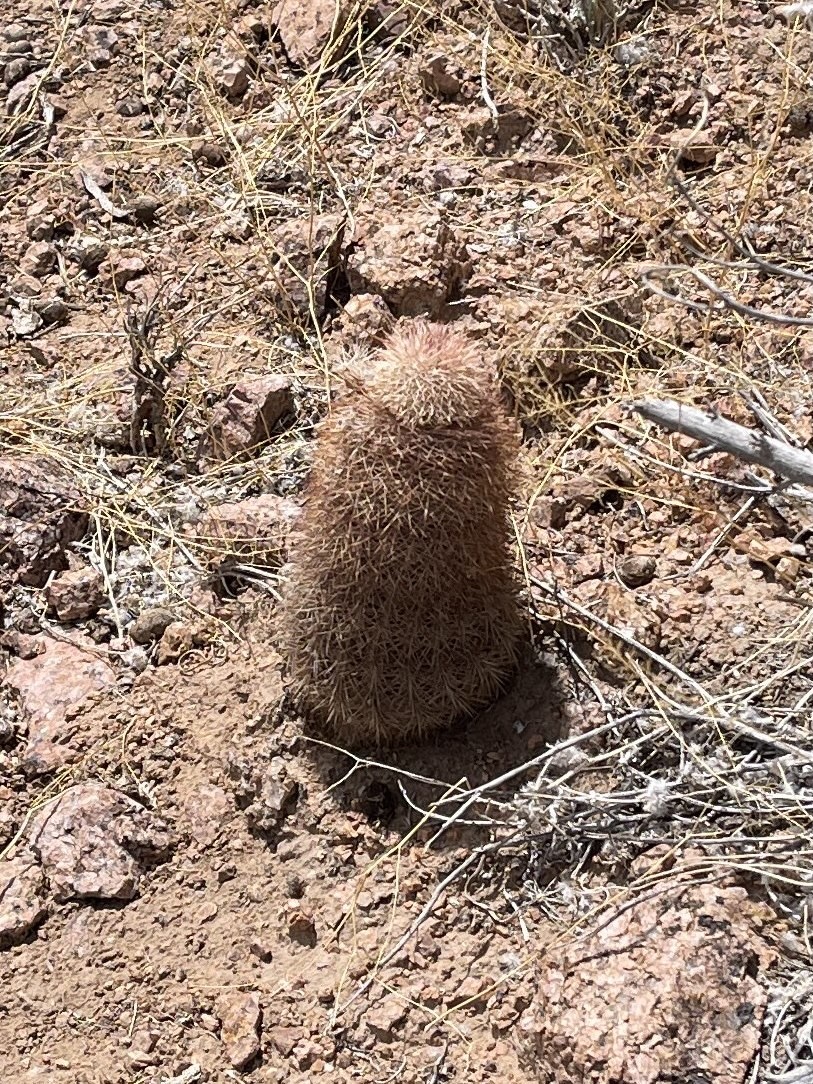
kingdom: Plantae
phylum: Tracheophyta
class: Magnoliopsida
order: Caryophyllales
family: Cactaceae
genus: Echinocereus
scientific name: Echinocereus dasyacanthus
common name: Spiny hedgehog cactus
